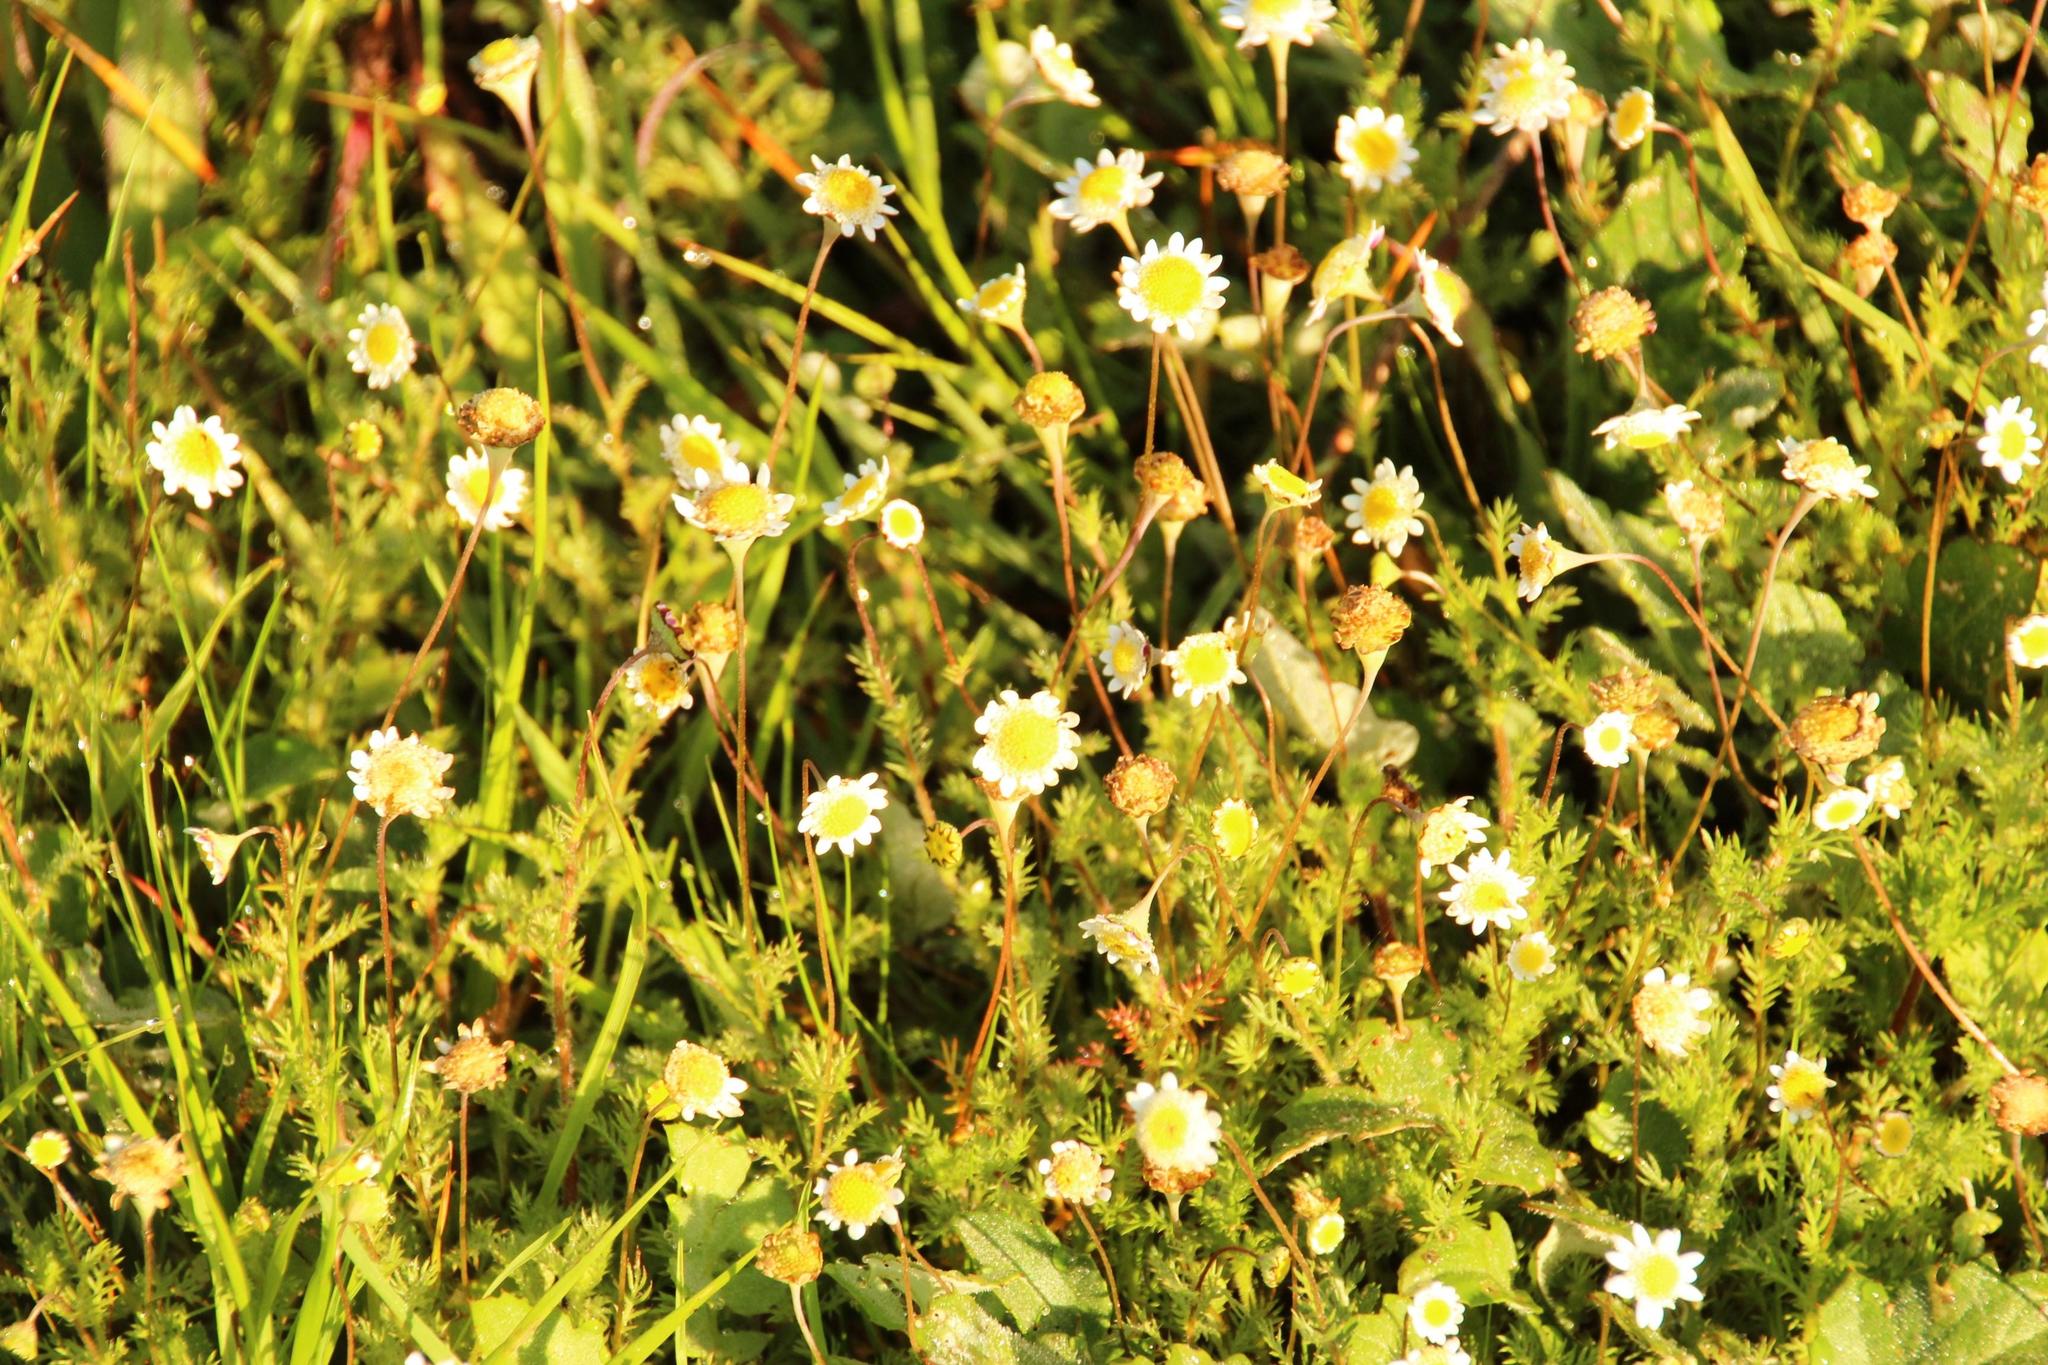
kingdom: Plantae
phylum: Tracheophyta
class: Magnoliopsida
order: Asterales
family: Asteraceae
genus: Cotula
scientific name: Cotula turbinata
